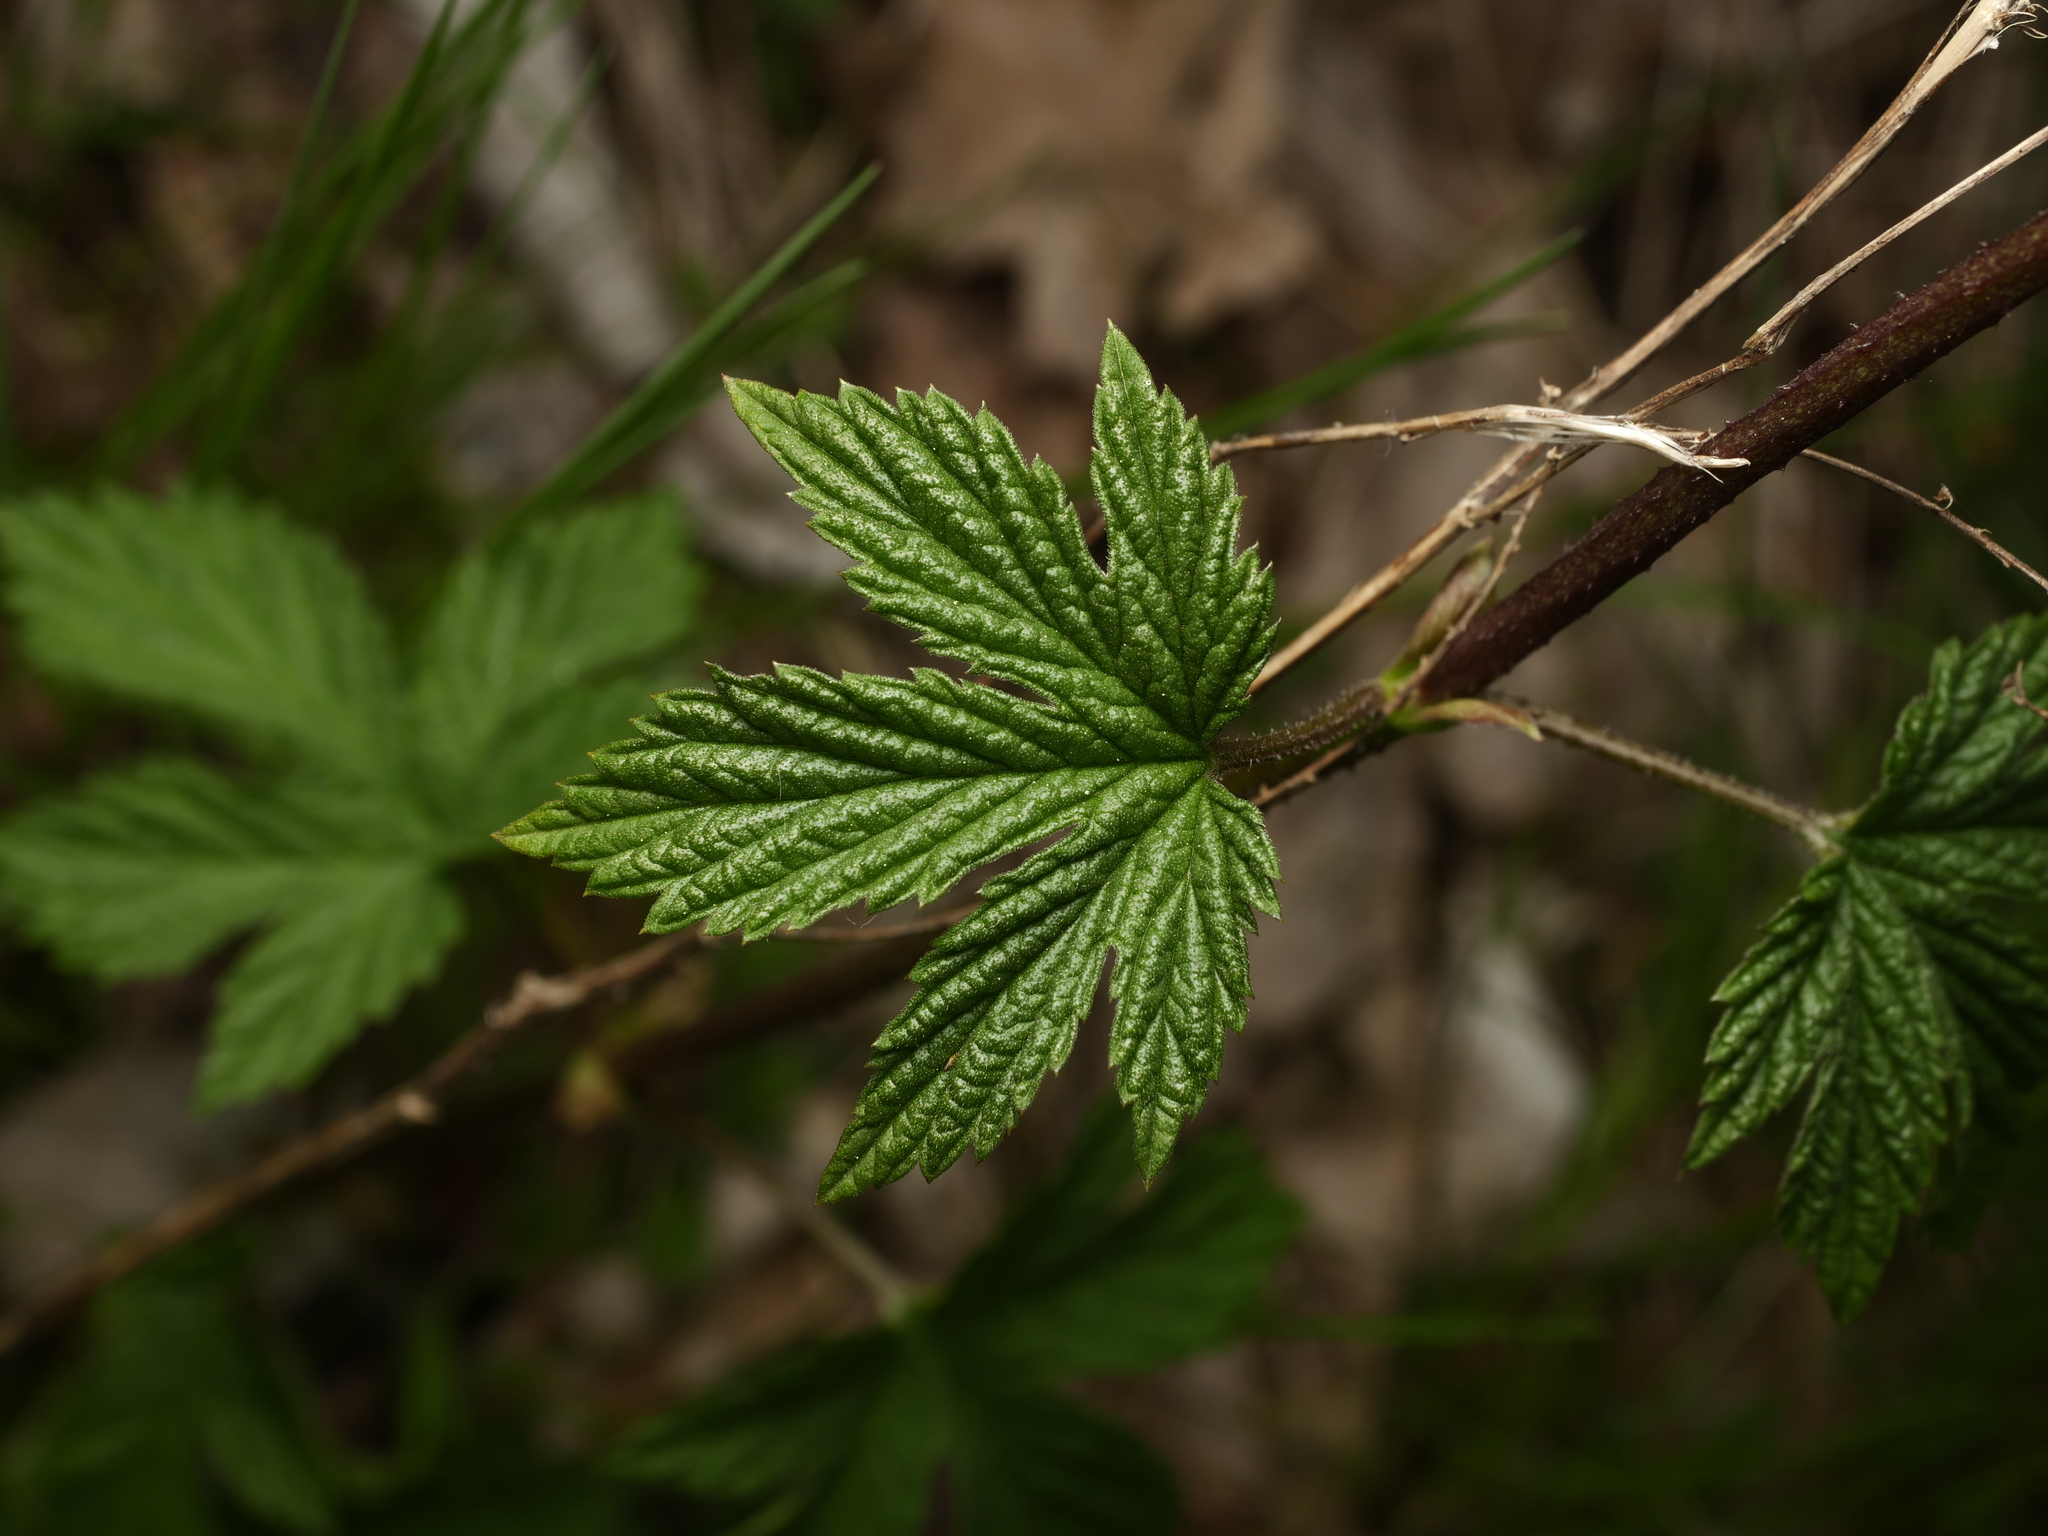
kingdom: Plantae
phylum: Tracheophyta
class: Magnoliopsida
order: Rosales
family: Cannabaceae
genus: Humulus
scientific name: Humulus lupulus
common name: Hop
